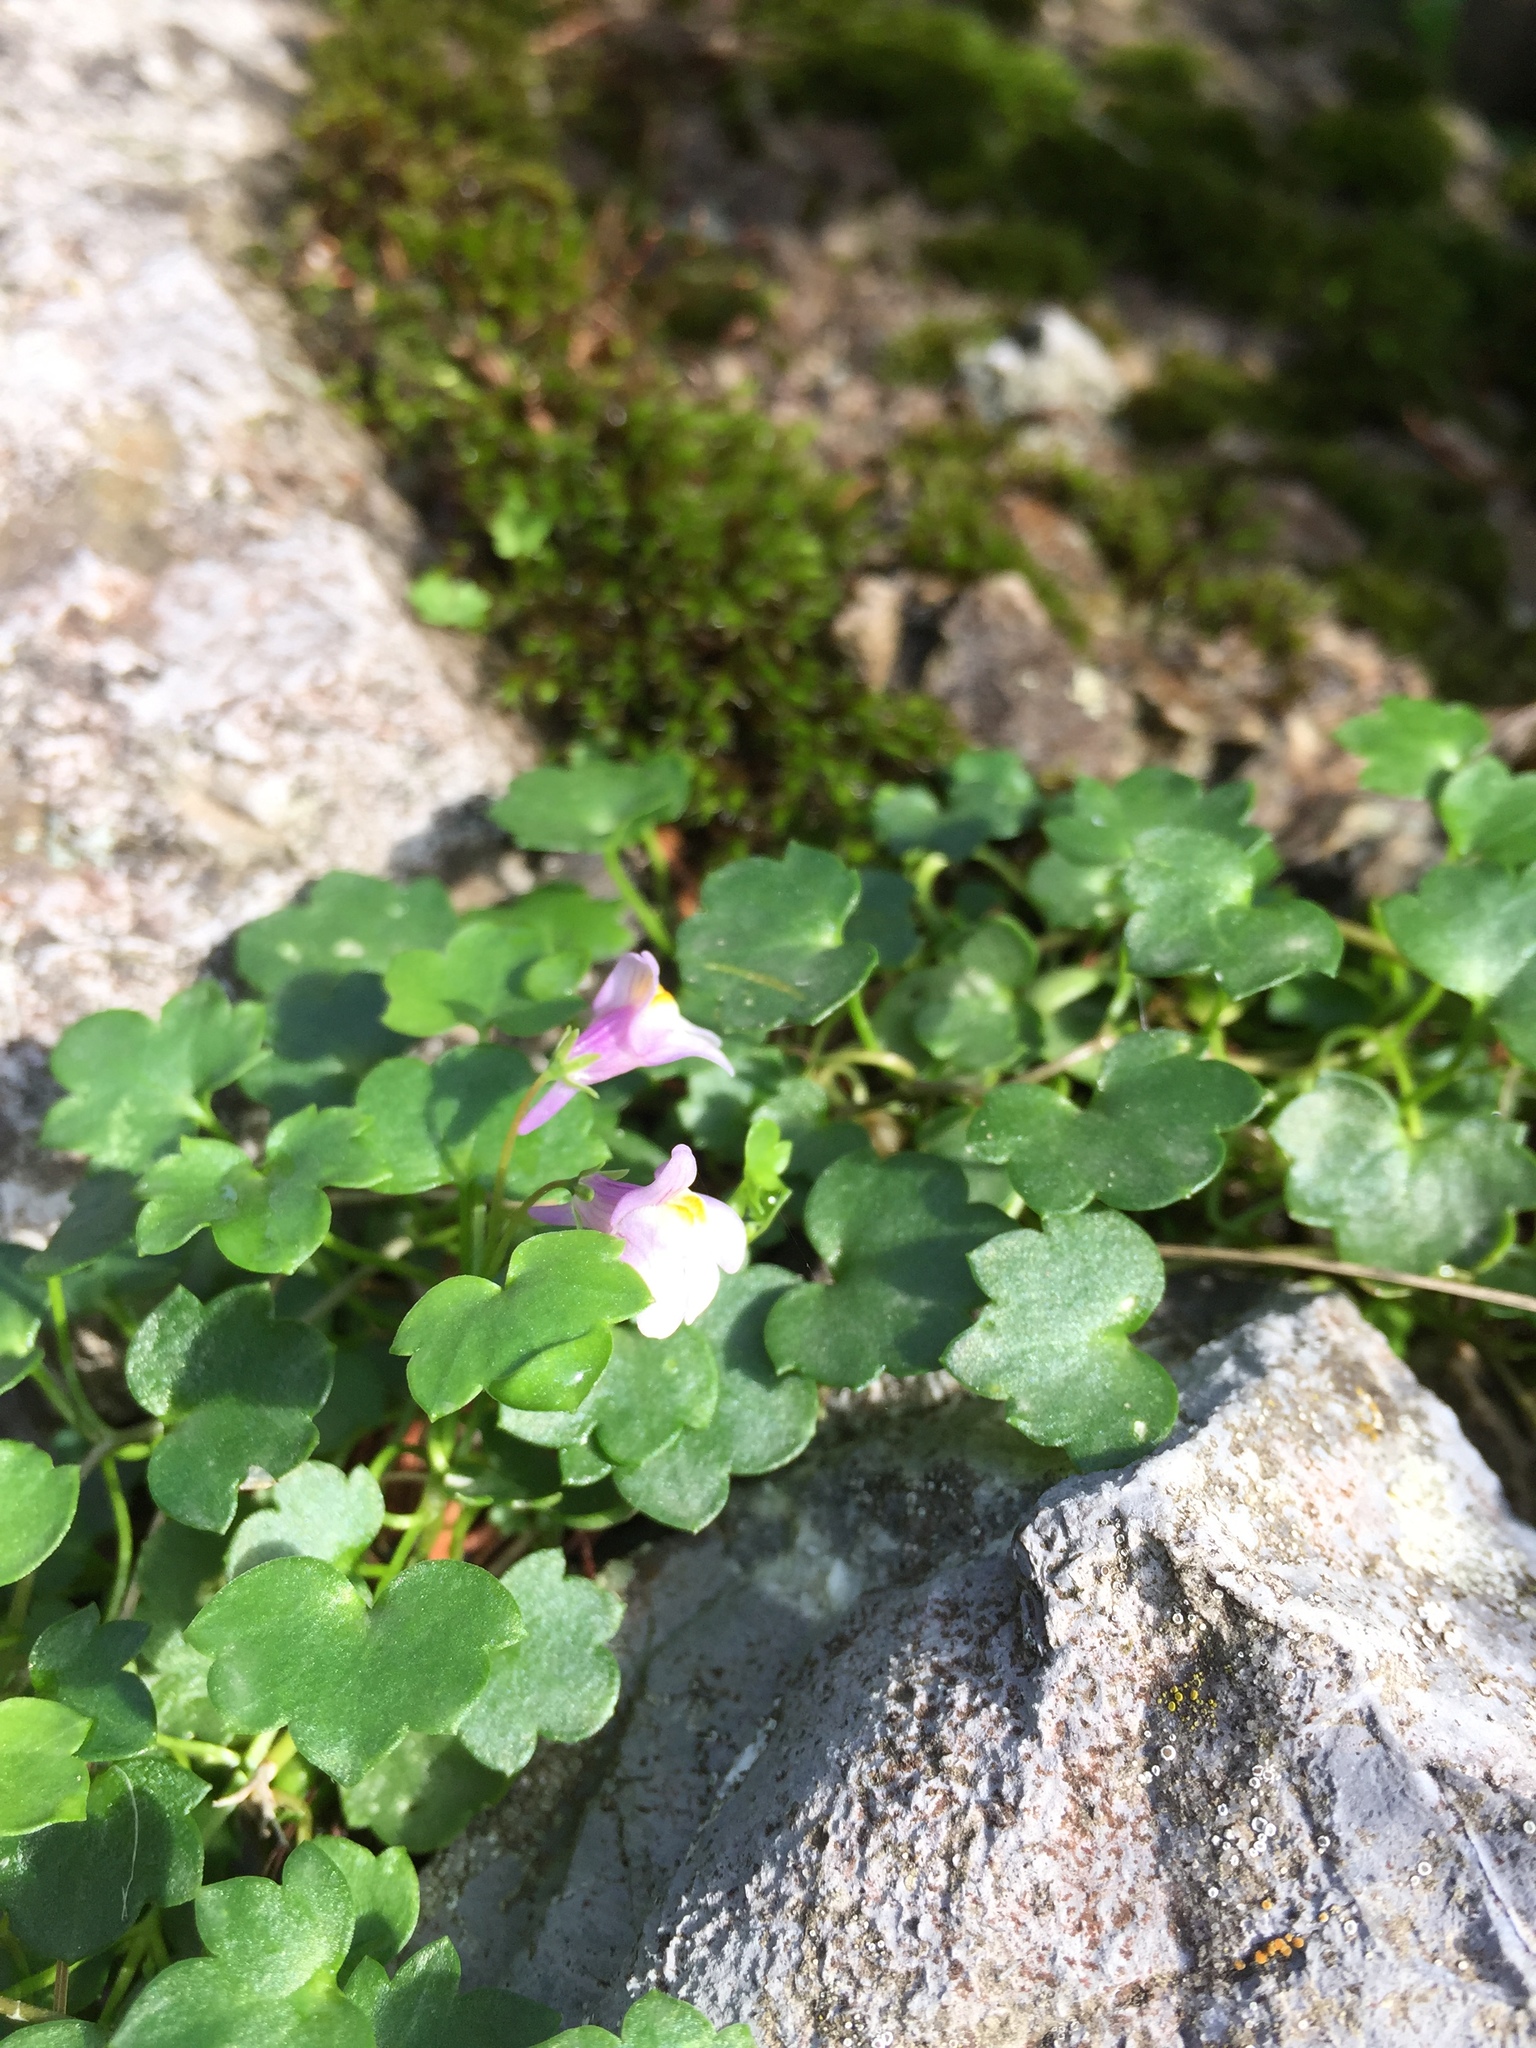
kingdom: Plantae
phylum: Tracheophyta
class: Magnoliopsida
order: Lamiales
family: Plantaginaceae
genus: Cymbalaria
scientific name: Cymbalaria muralis
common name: Ivy-leaved toadflax
